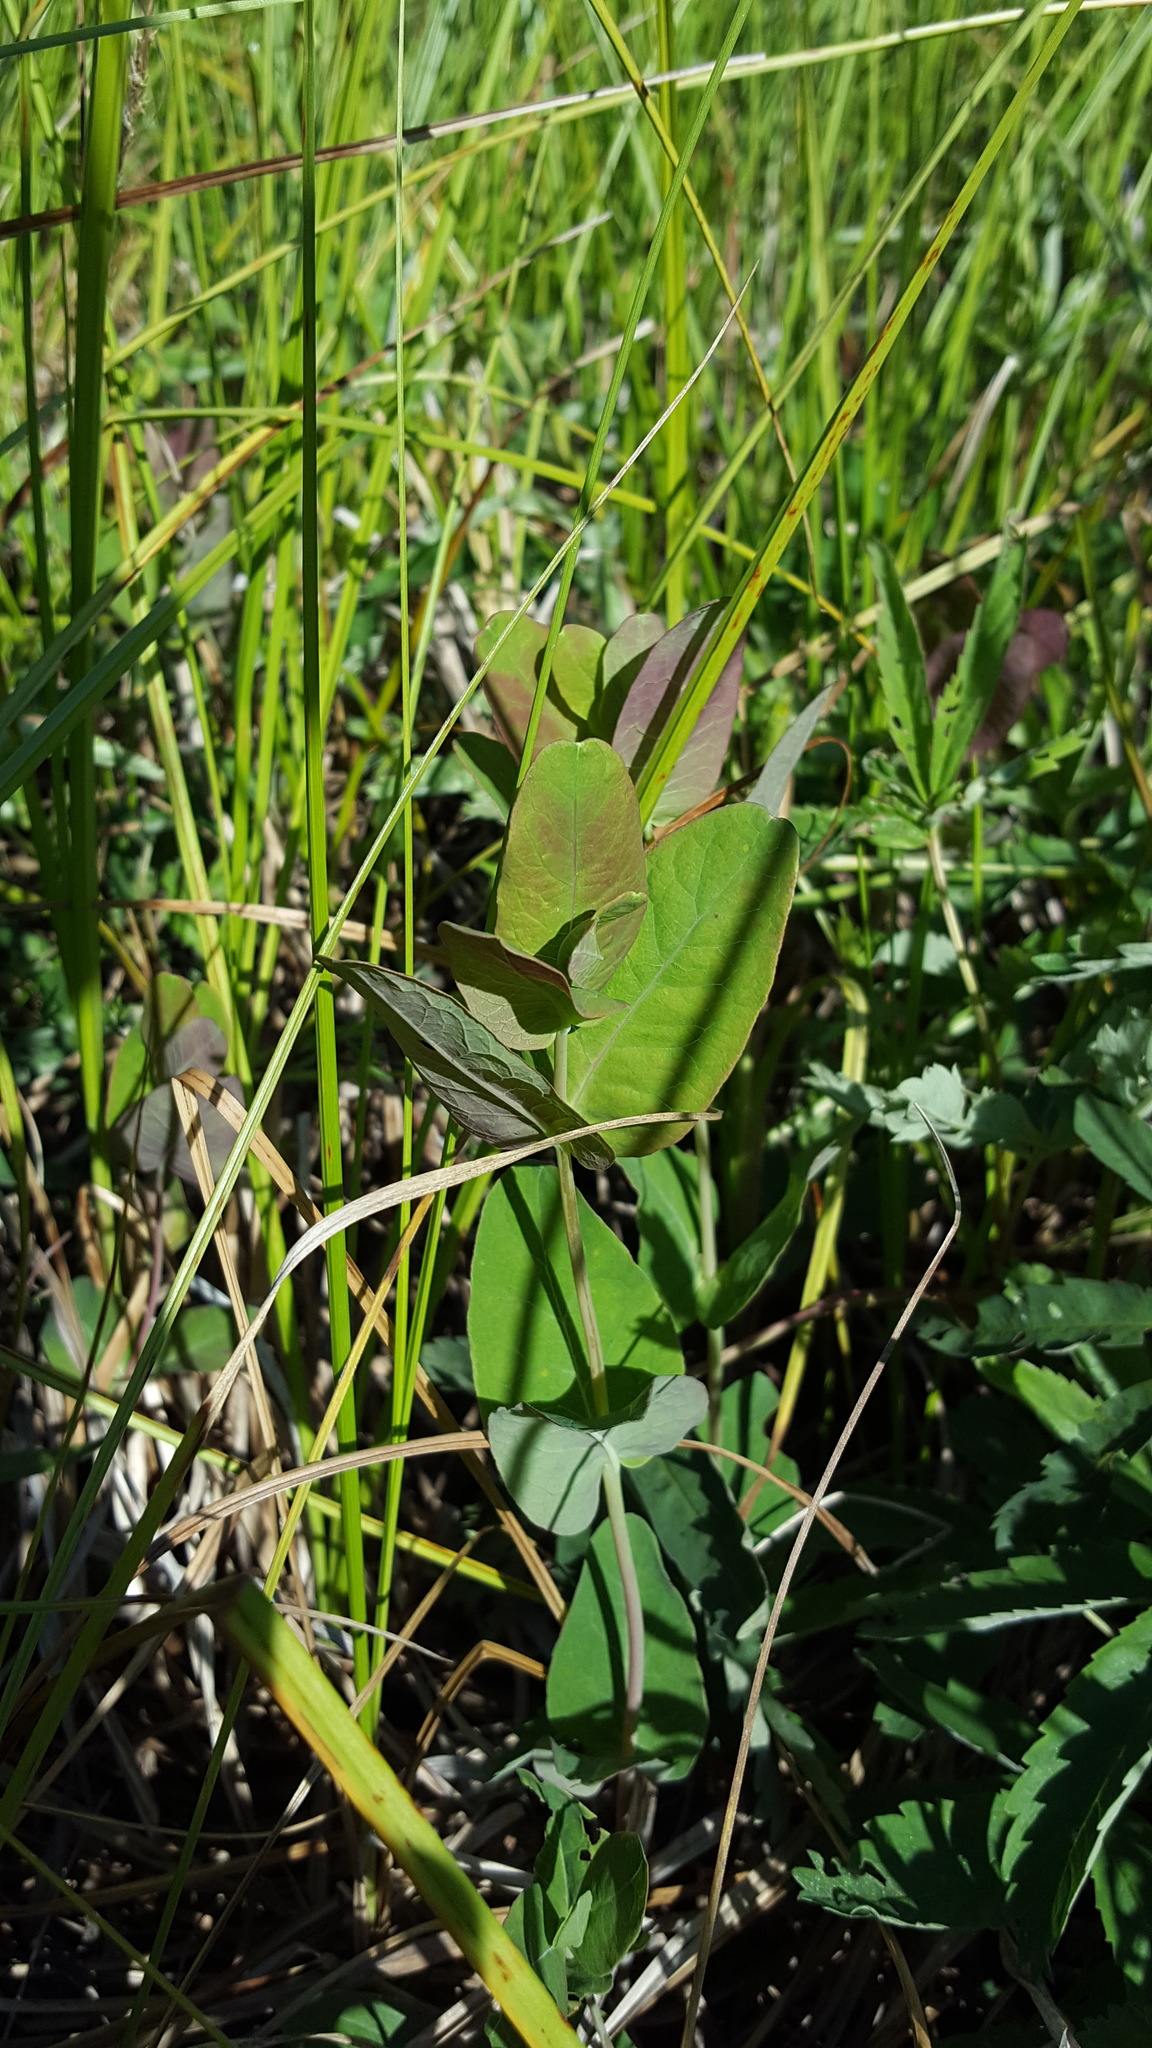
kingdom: Plantae
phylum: Tracheophyta
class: Magnoliopsida
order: Malpighiales
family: Hypericaceae
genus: Triadenum
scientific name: Triadenum fraseri
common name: Fraser's marsh st. johnswort
